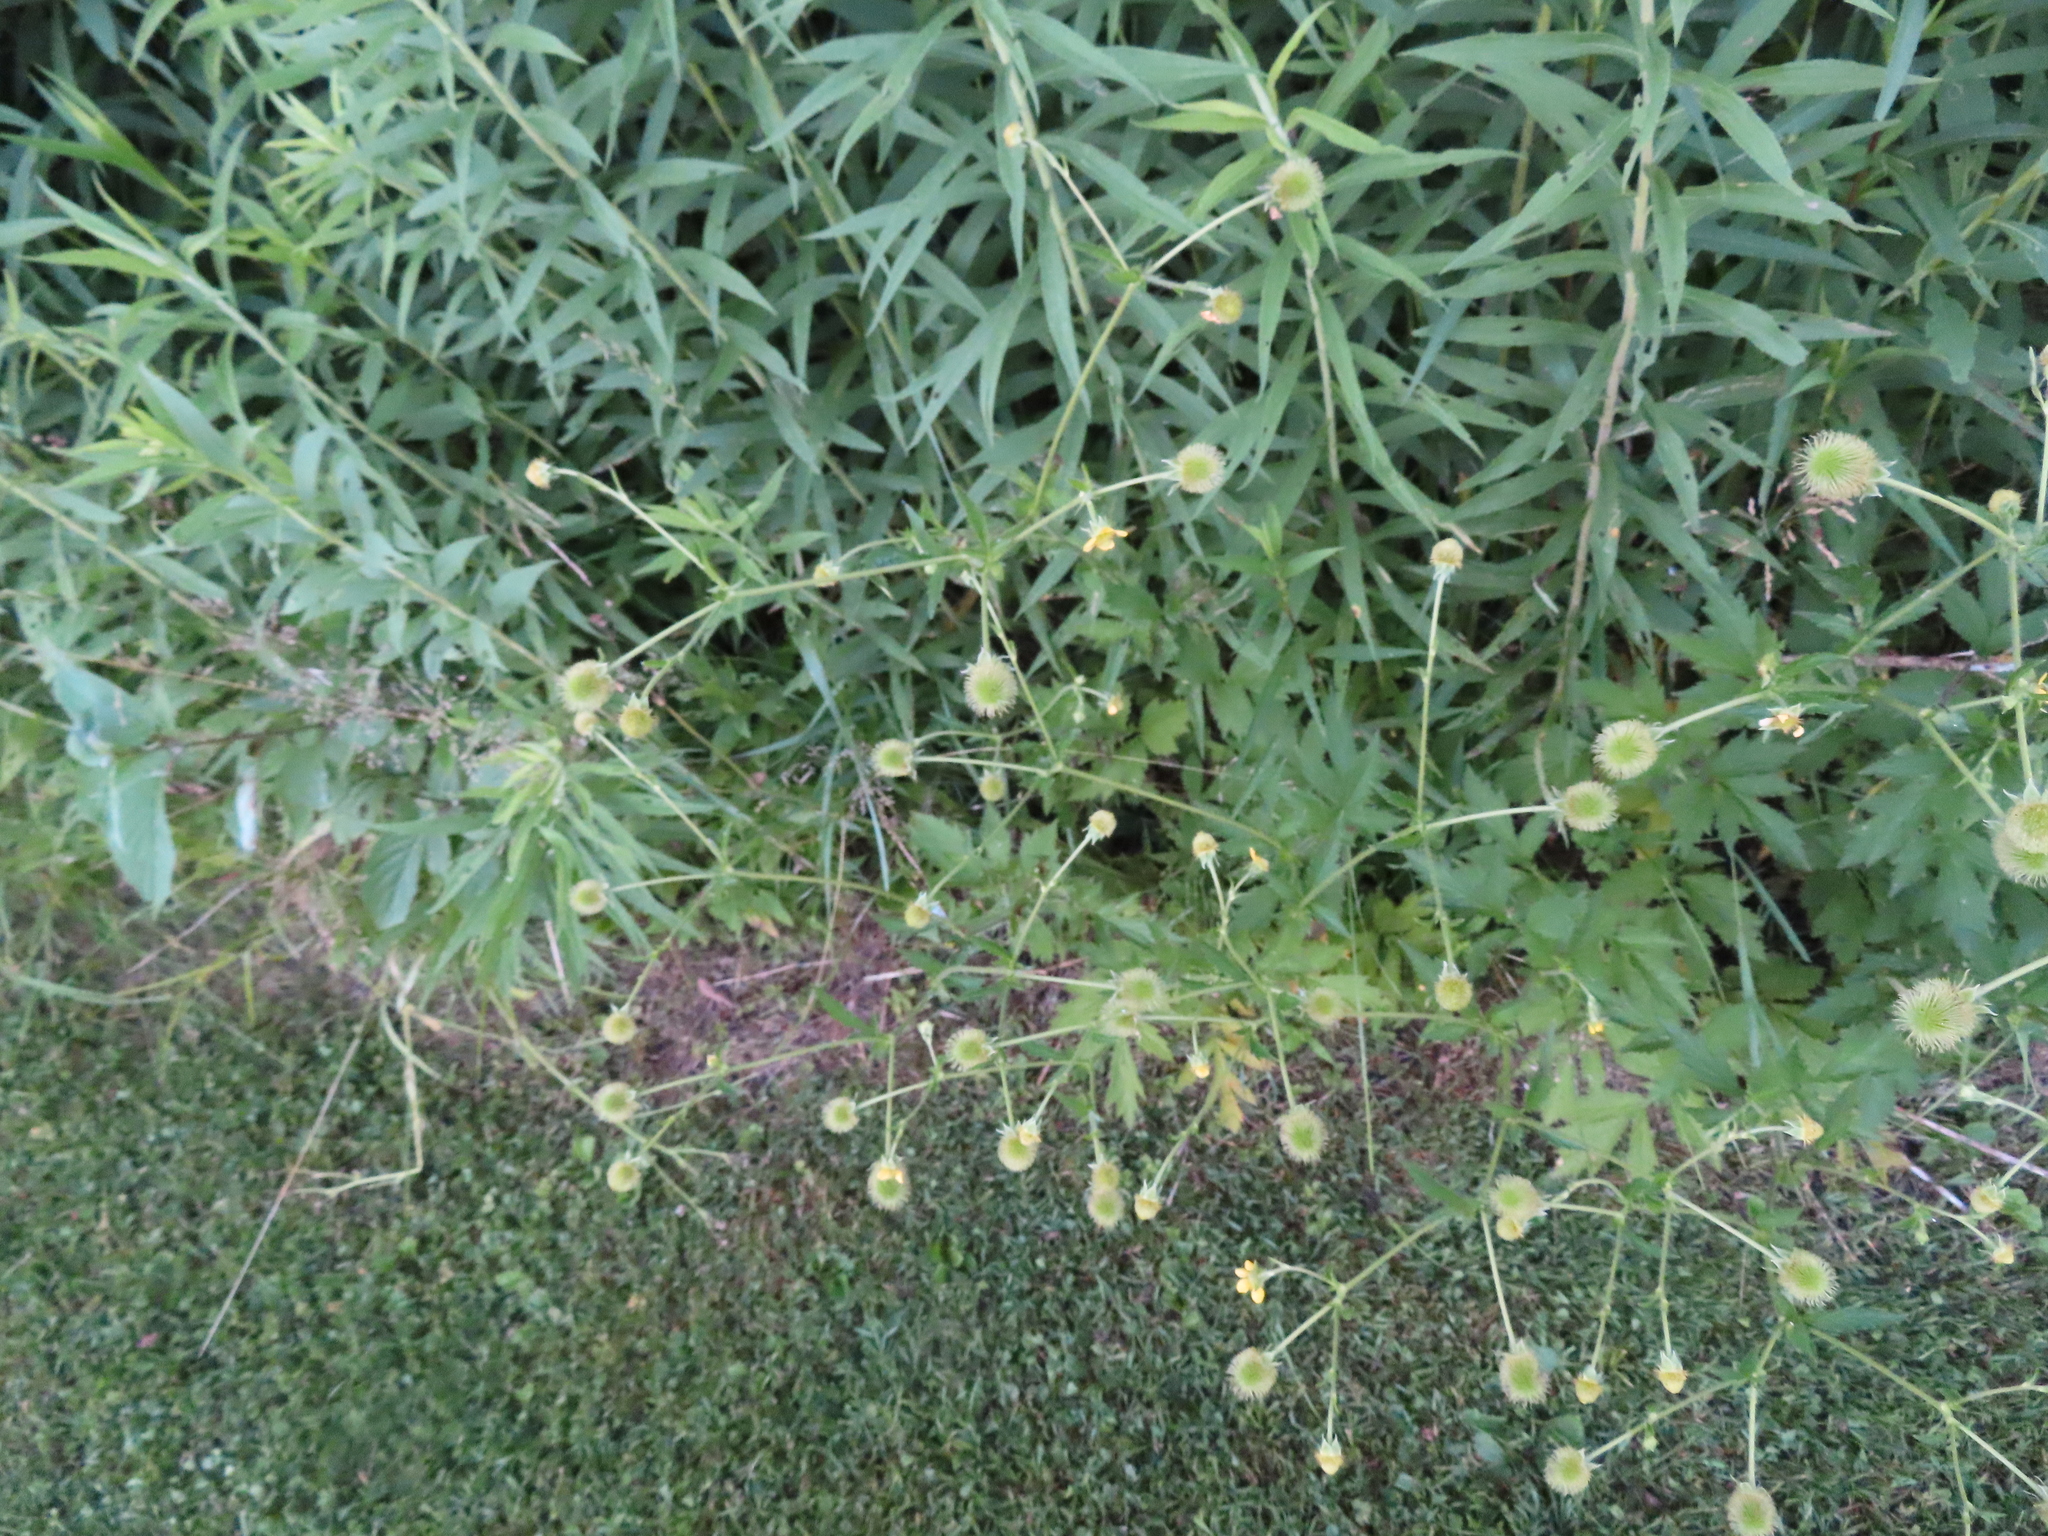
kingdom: Plantae
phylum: Tracheophyta
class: Magnoliopsida
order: Rosales
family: Rosaceae
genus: Geum
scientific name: Geum aleppicum
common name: Yellow avens
